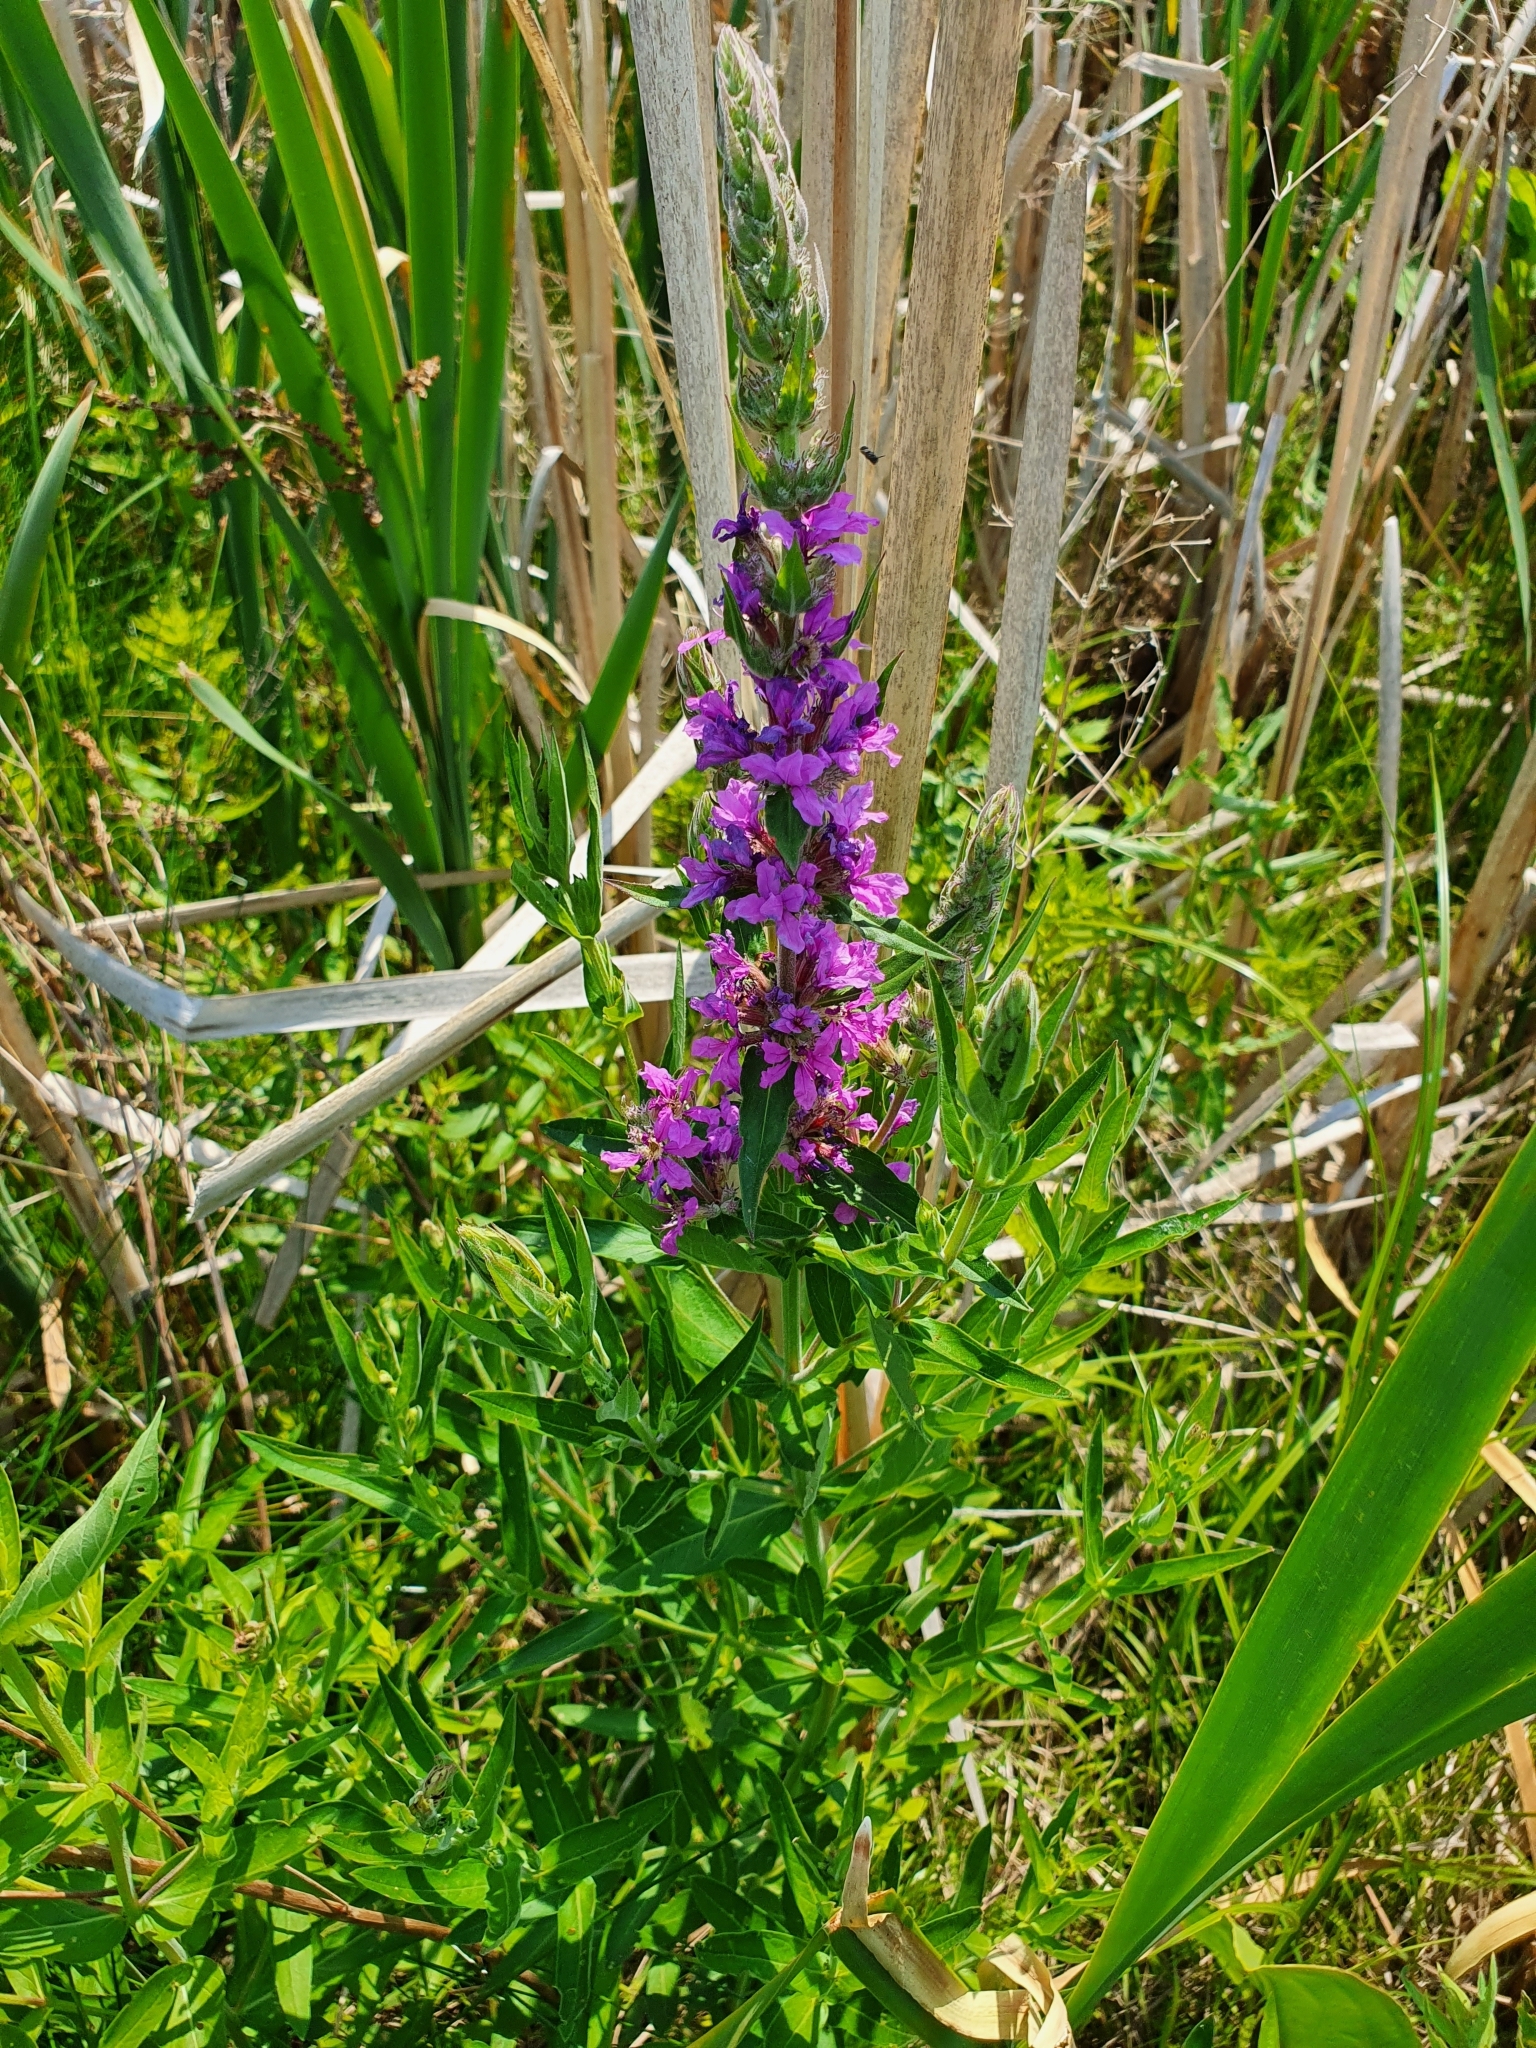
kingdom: Plantae
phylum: Tracheophyta
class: Magnoliopsida
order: Myrtales
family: Lythraceae
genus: Lythrum
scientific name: Lythrum salicaria
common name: Purple loosestrife
